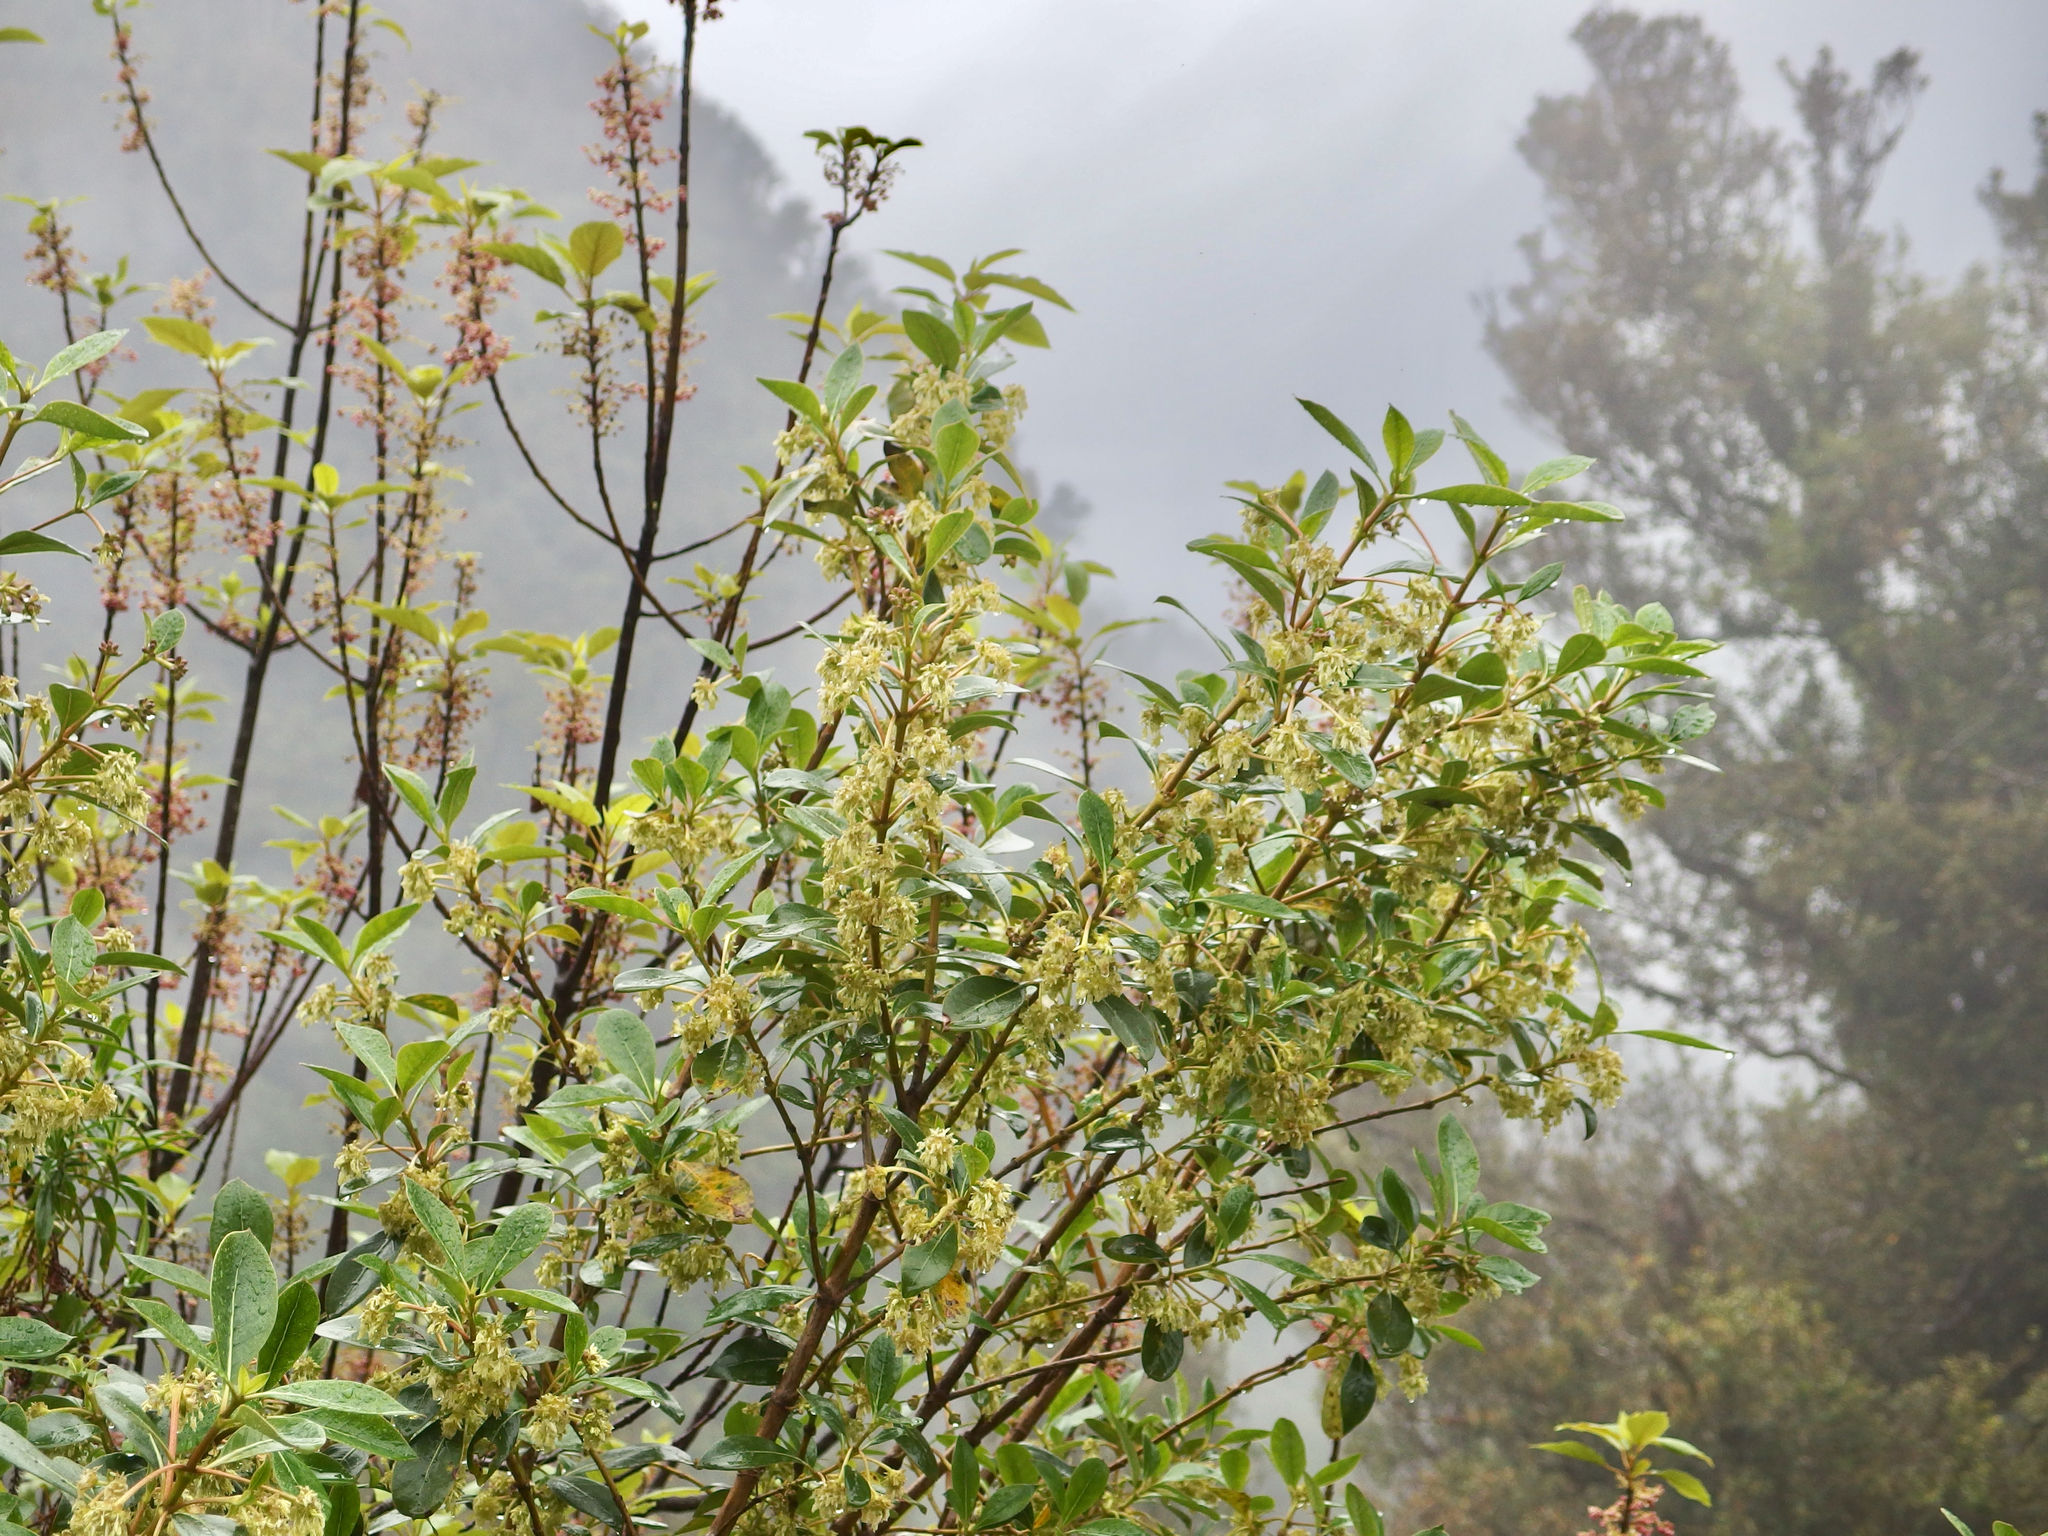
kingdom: Plantae
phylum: Tracheophyta
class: Magnoliopsida
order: Gentianales
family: Rubiaceae
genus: Coprosma
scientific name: Coprosma lucida
